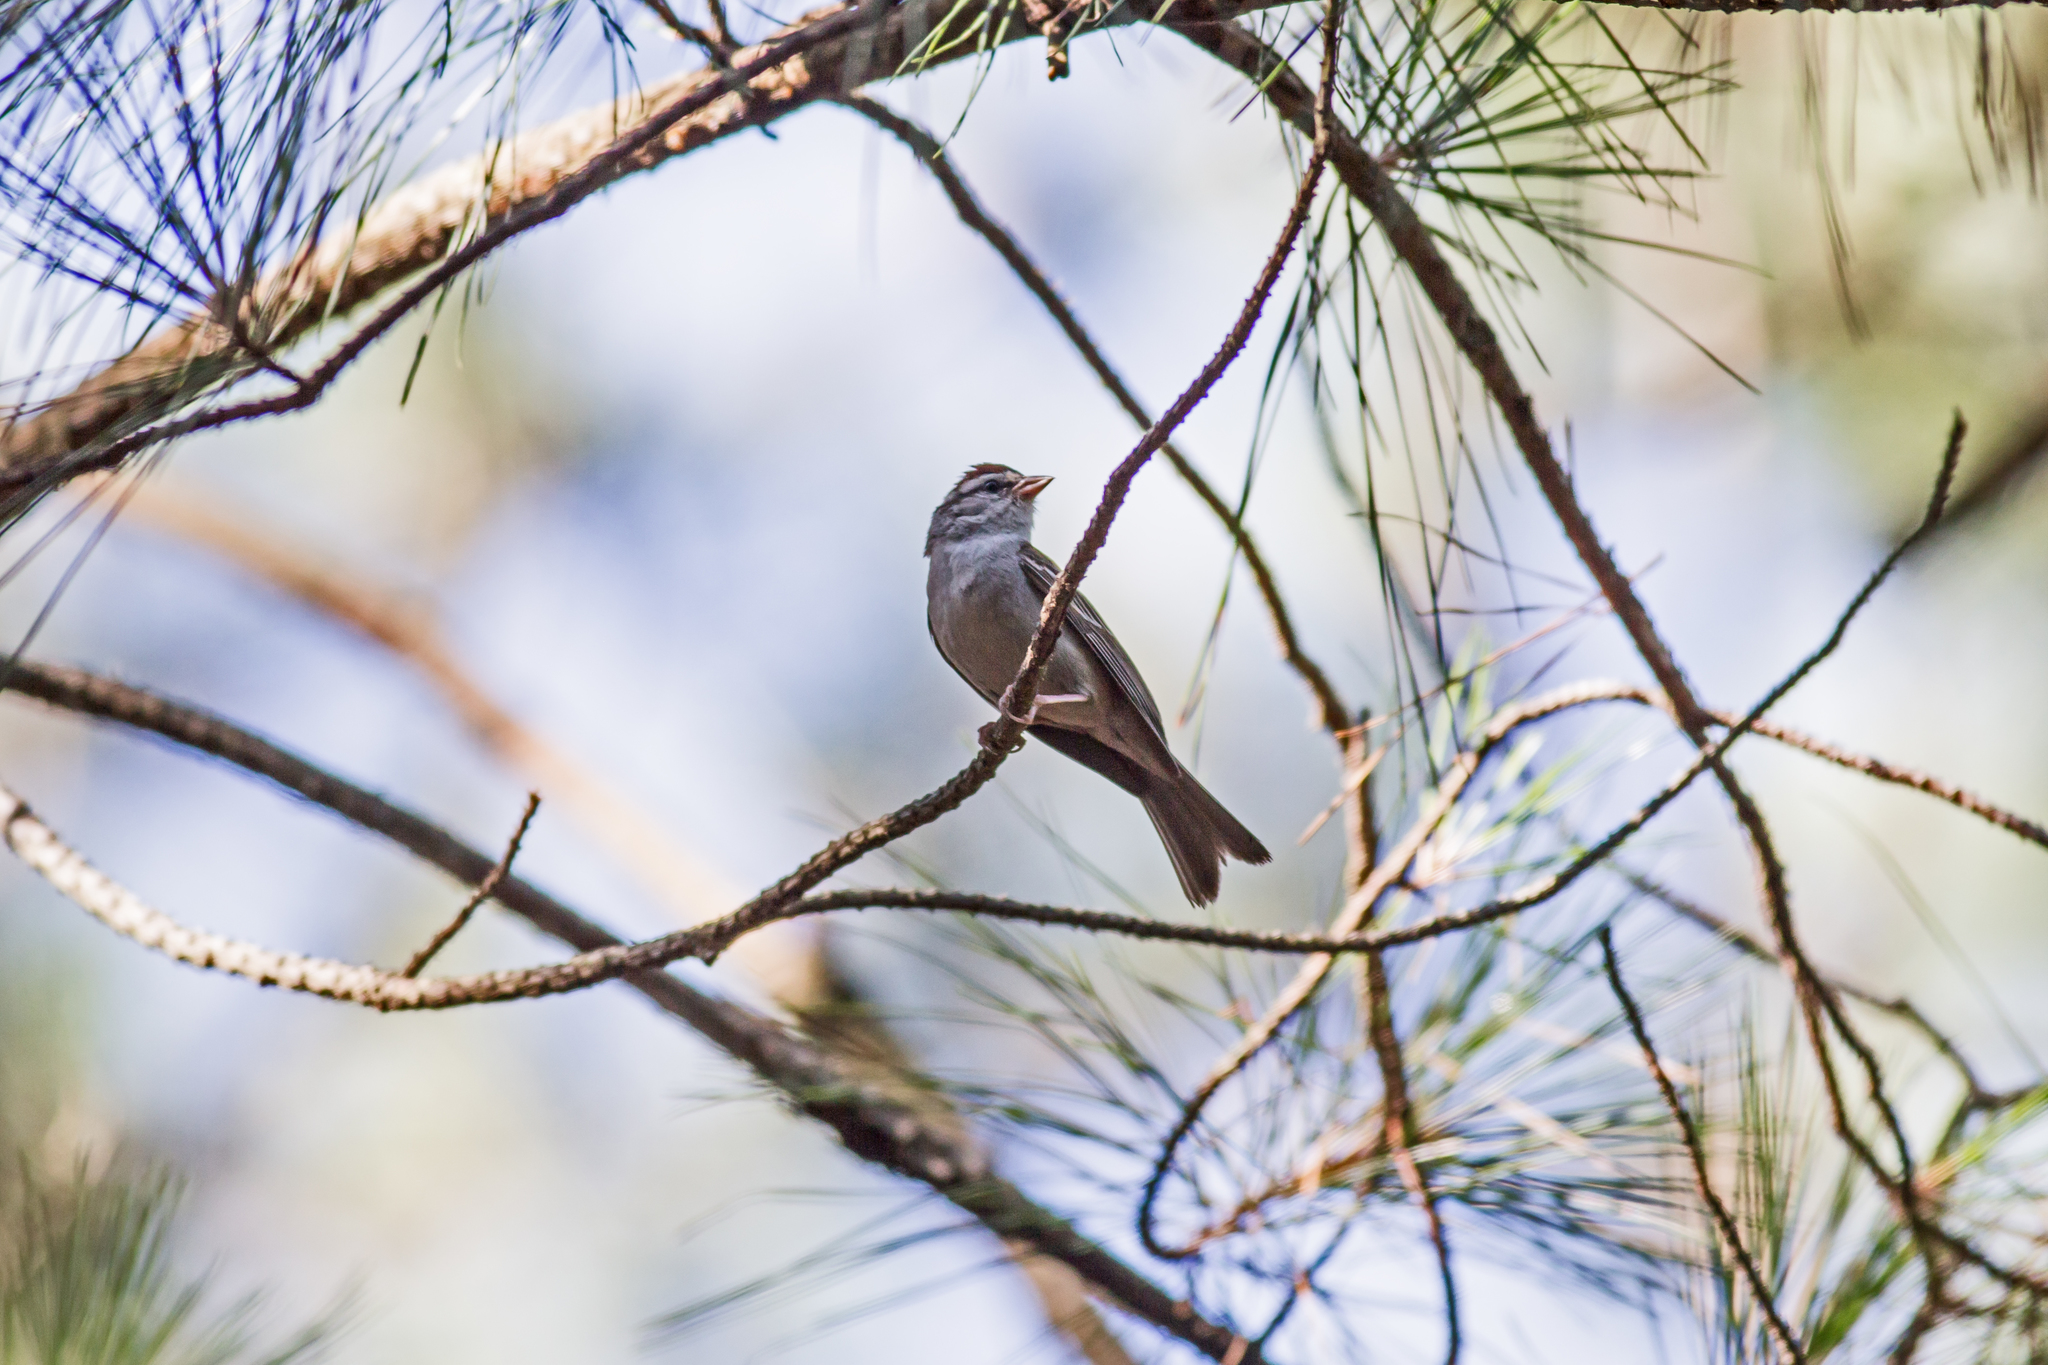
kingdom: Animalia
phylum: Chordata
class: Aves
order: Passeriformes
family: Passerellidae
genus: Spizella
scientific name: Spizella passerina
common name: Chipping sparrow
